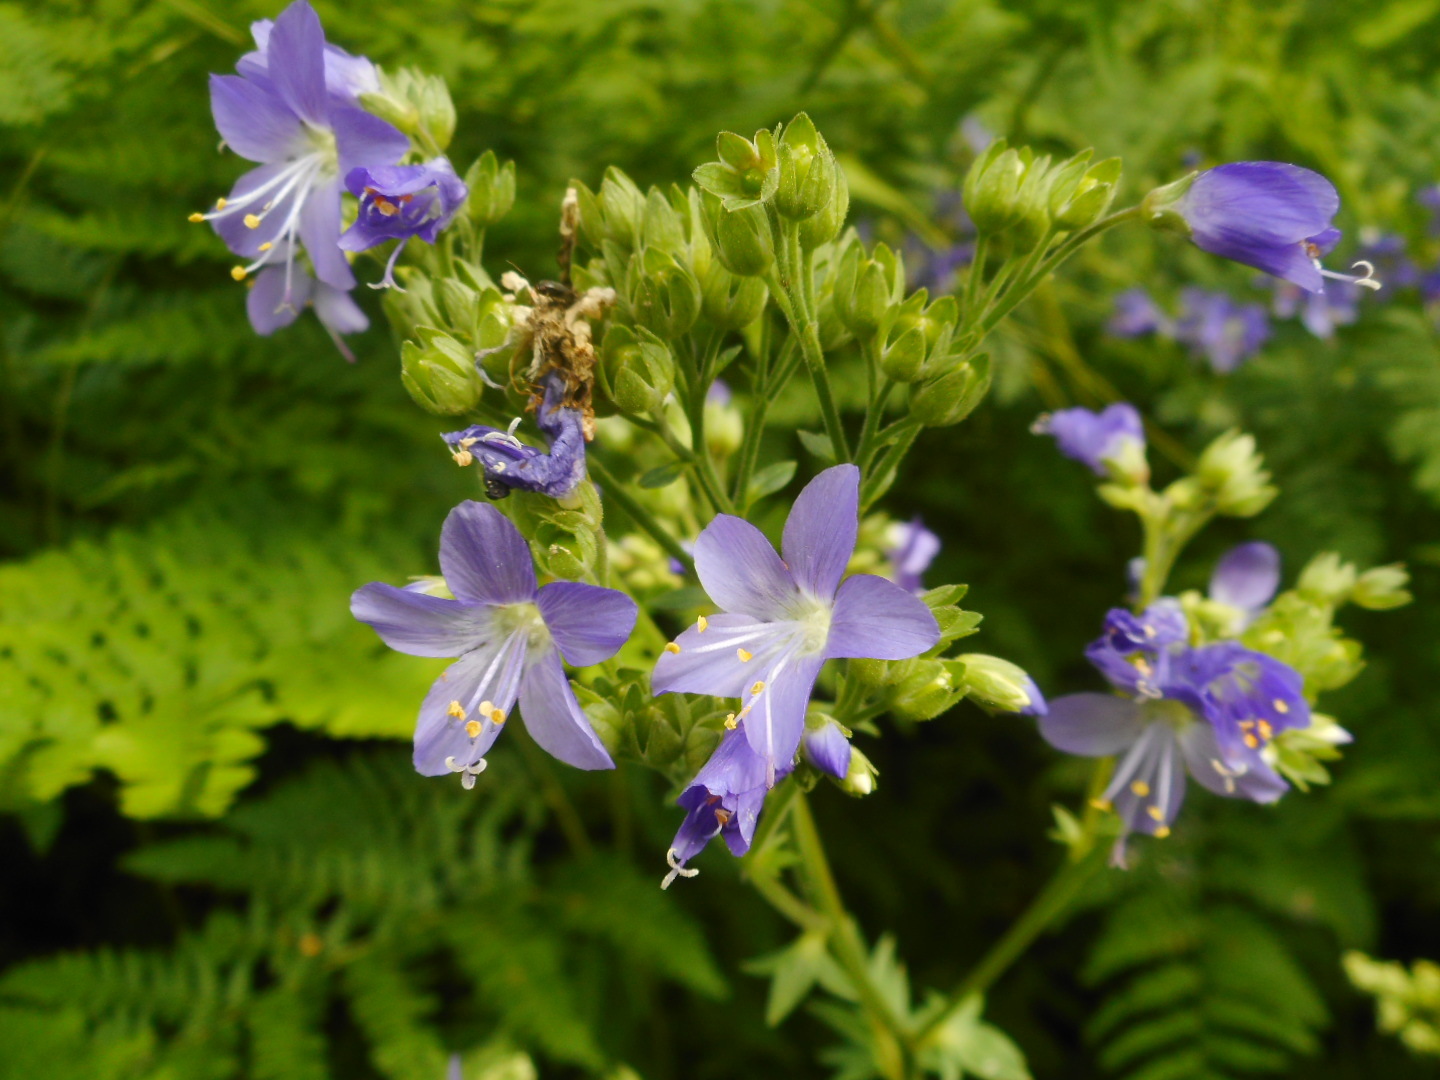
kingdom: Plantae
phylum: Tracheophyta
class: Magnoliopsida
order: Ericales
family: Polemoniaceae
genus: Polemonium
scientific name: Polemonium caeruleum
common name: Jacob's-ladder
